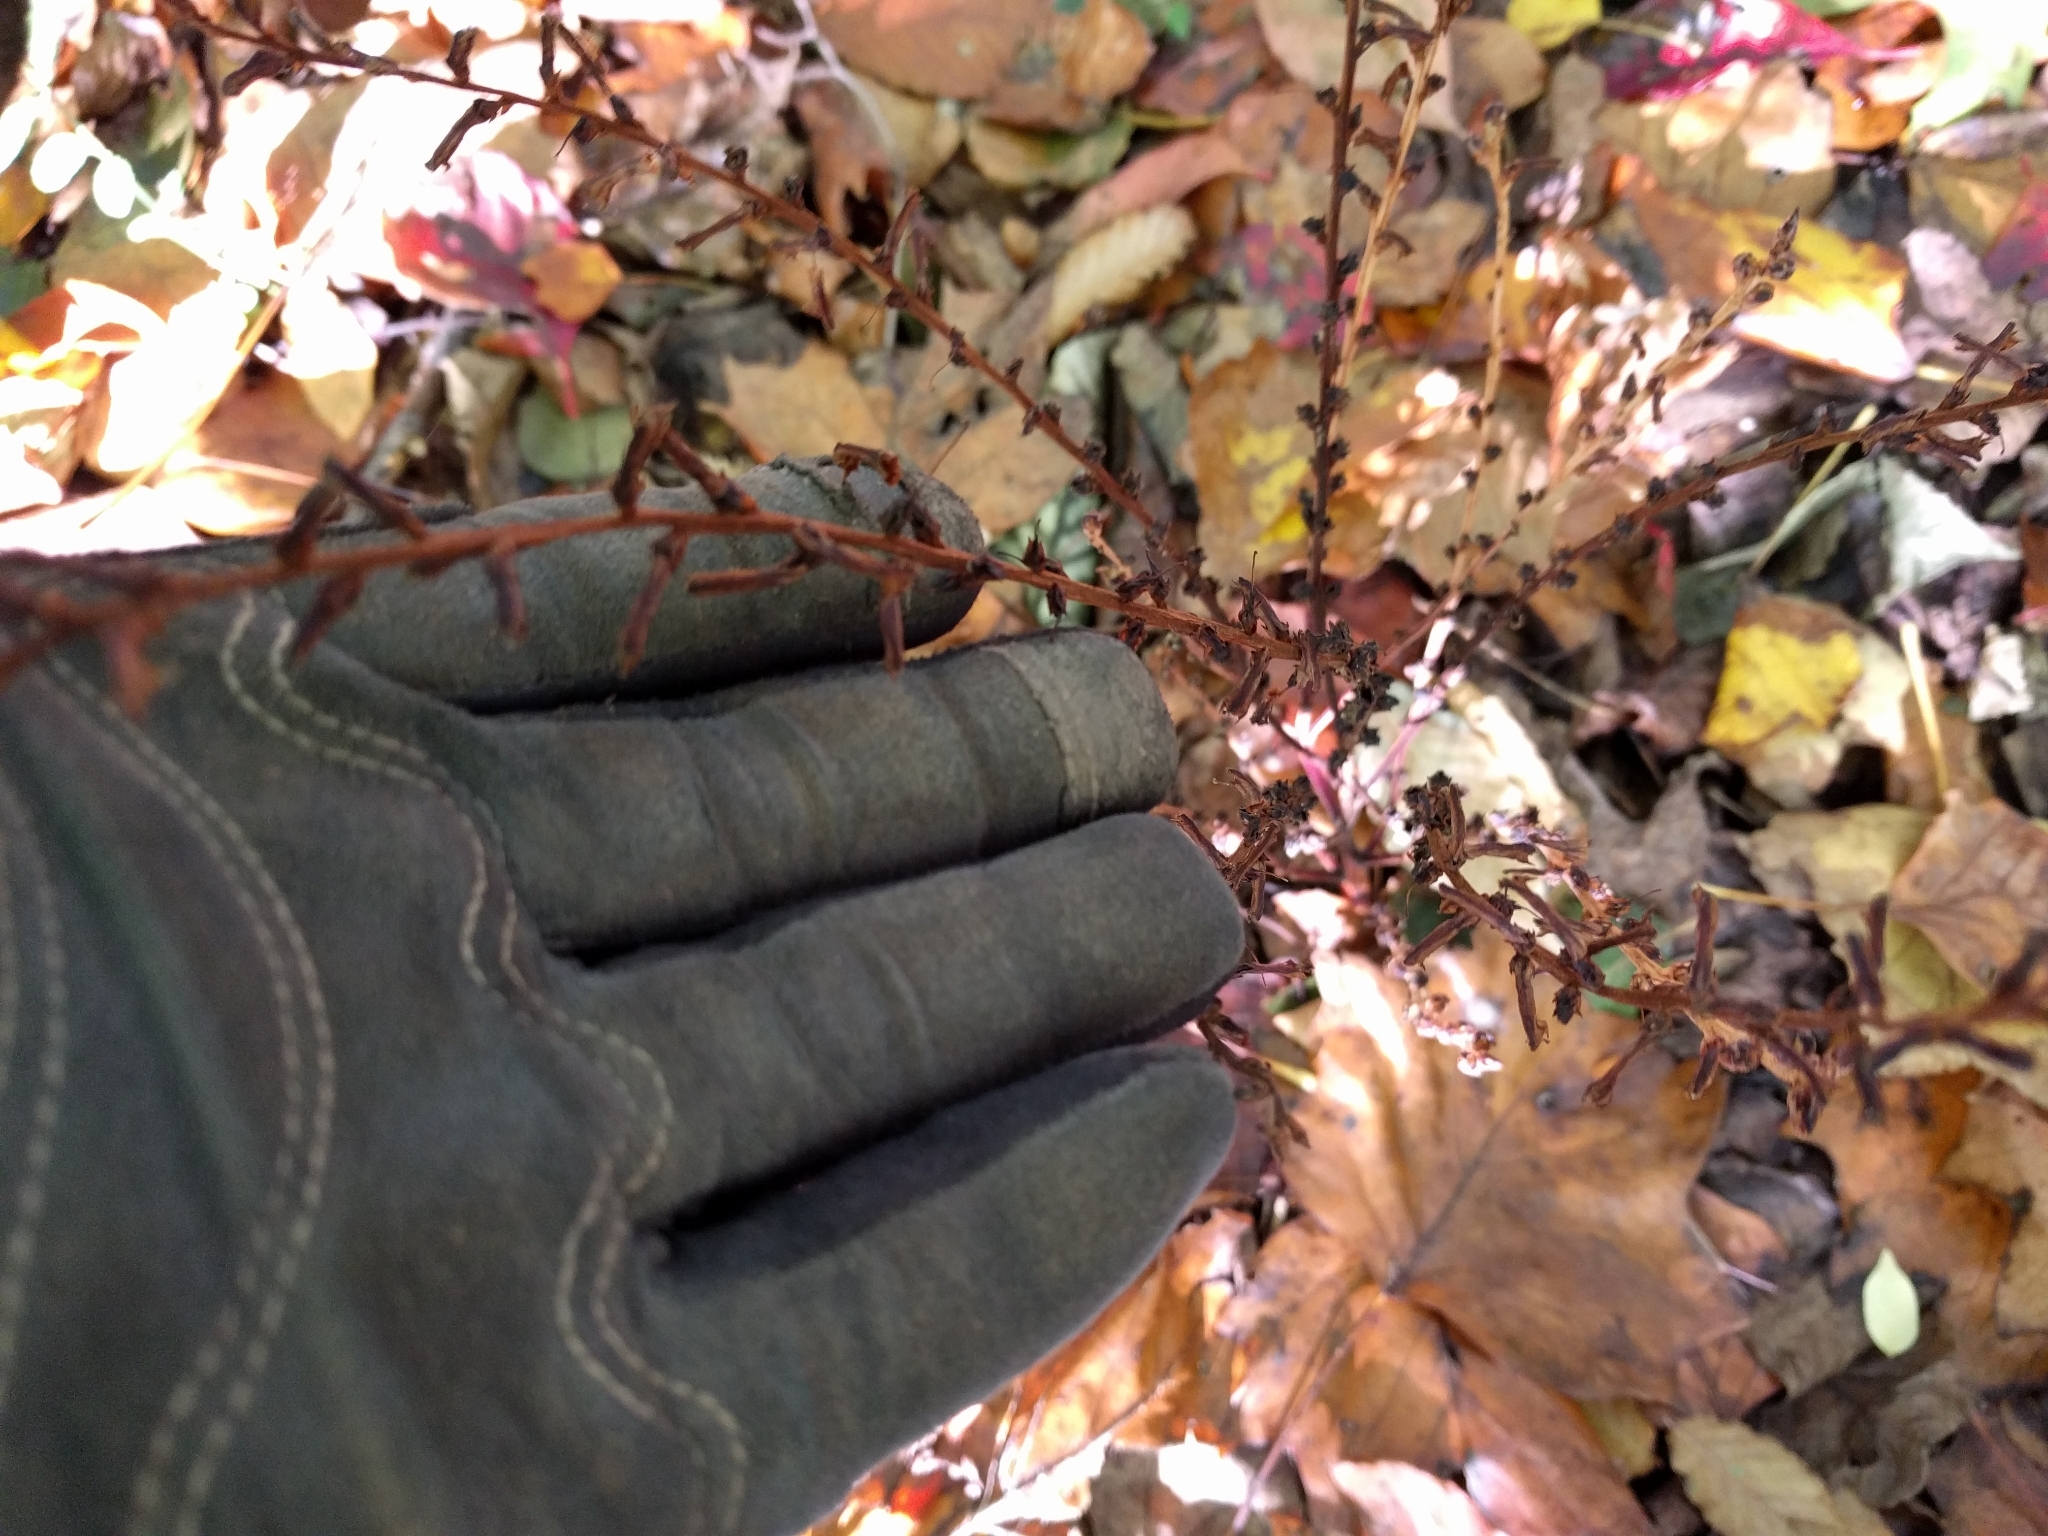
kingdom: Plantae
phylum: Tracheophyta
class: Magnoliopsida
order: Lamiales
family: Orobanchaceae
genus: Epifagus
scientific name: Epifagus virginiana
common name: Beechdrops
